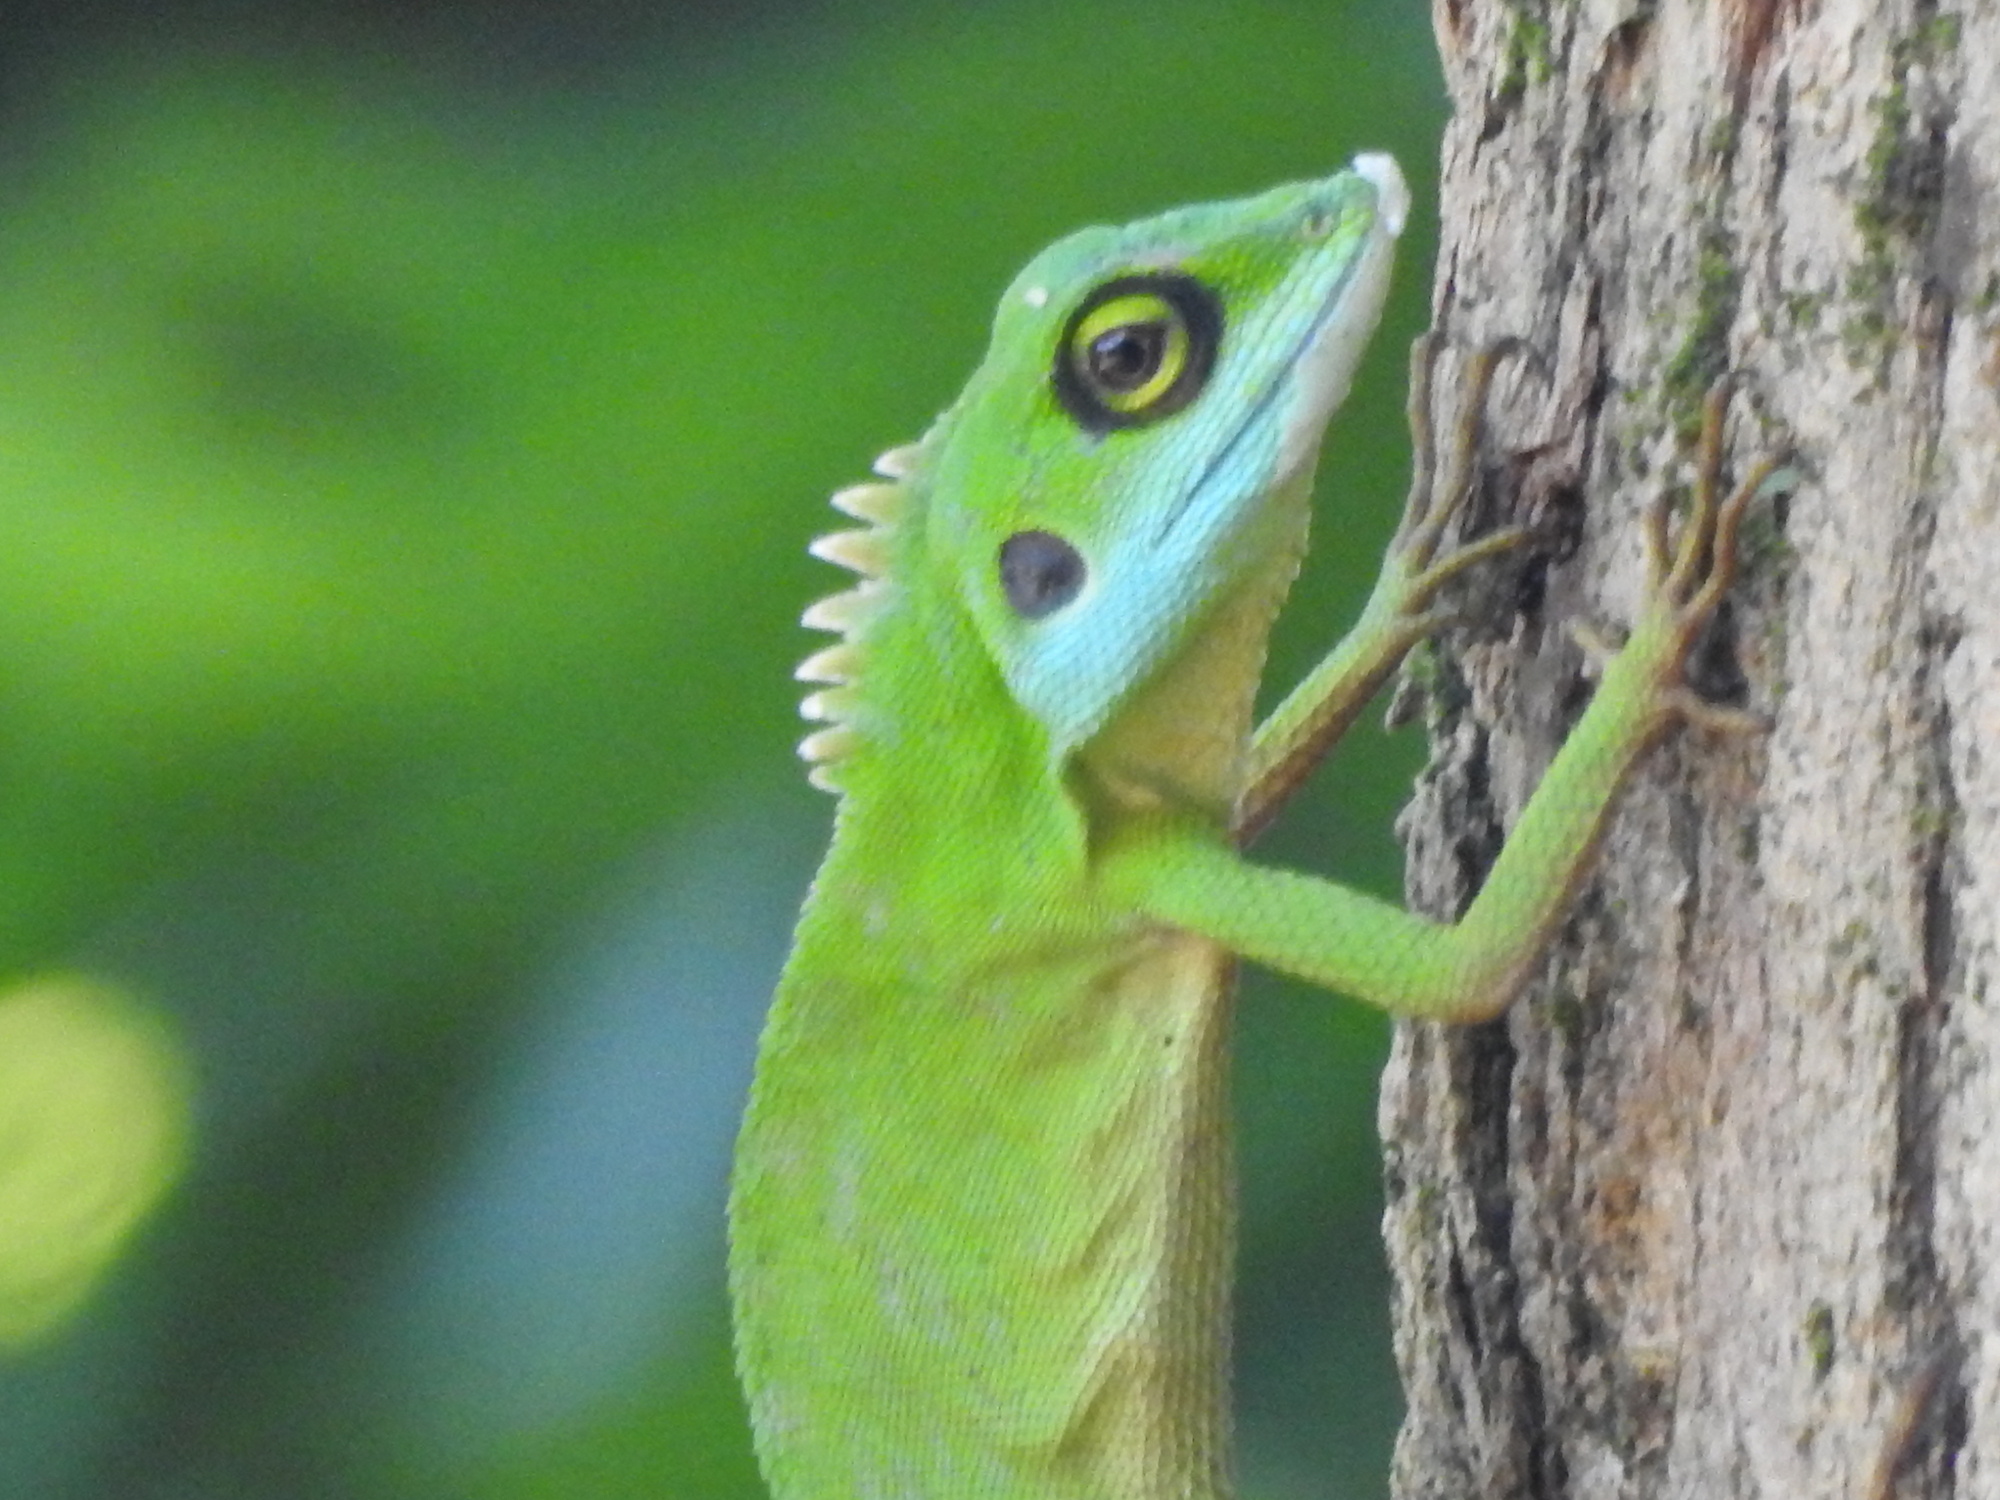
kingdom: Animalia
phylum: Chordata
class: Squamata
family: Agamidae
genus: Bronchocela
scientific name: Bronchocela cristatella
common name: Green crested lizard
